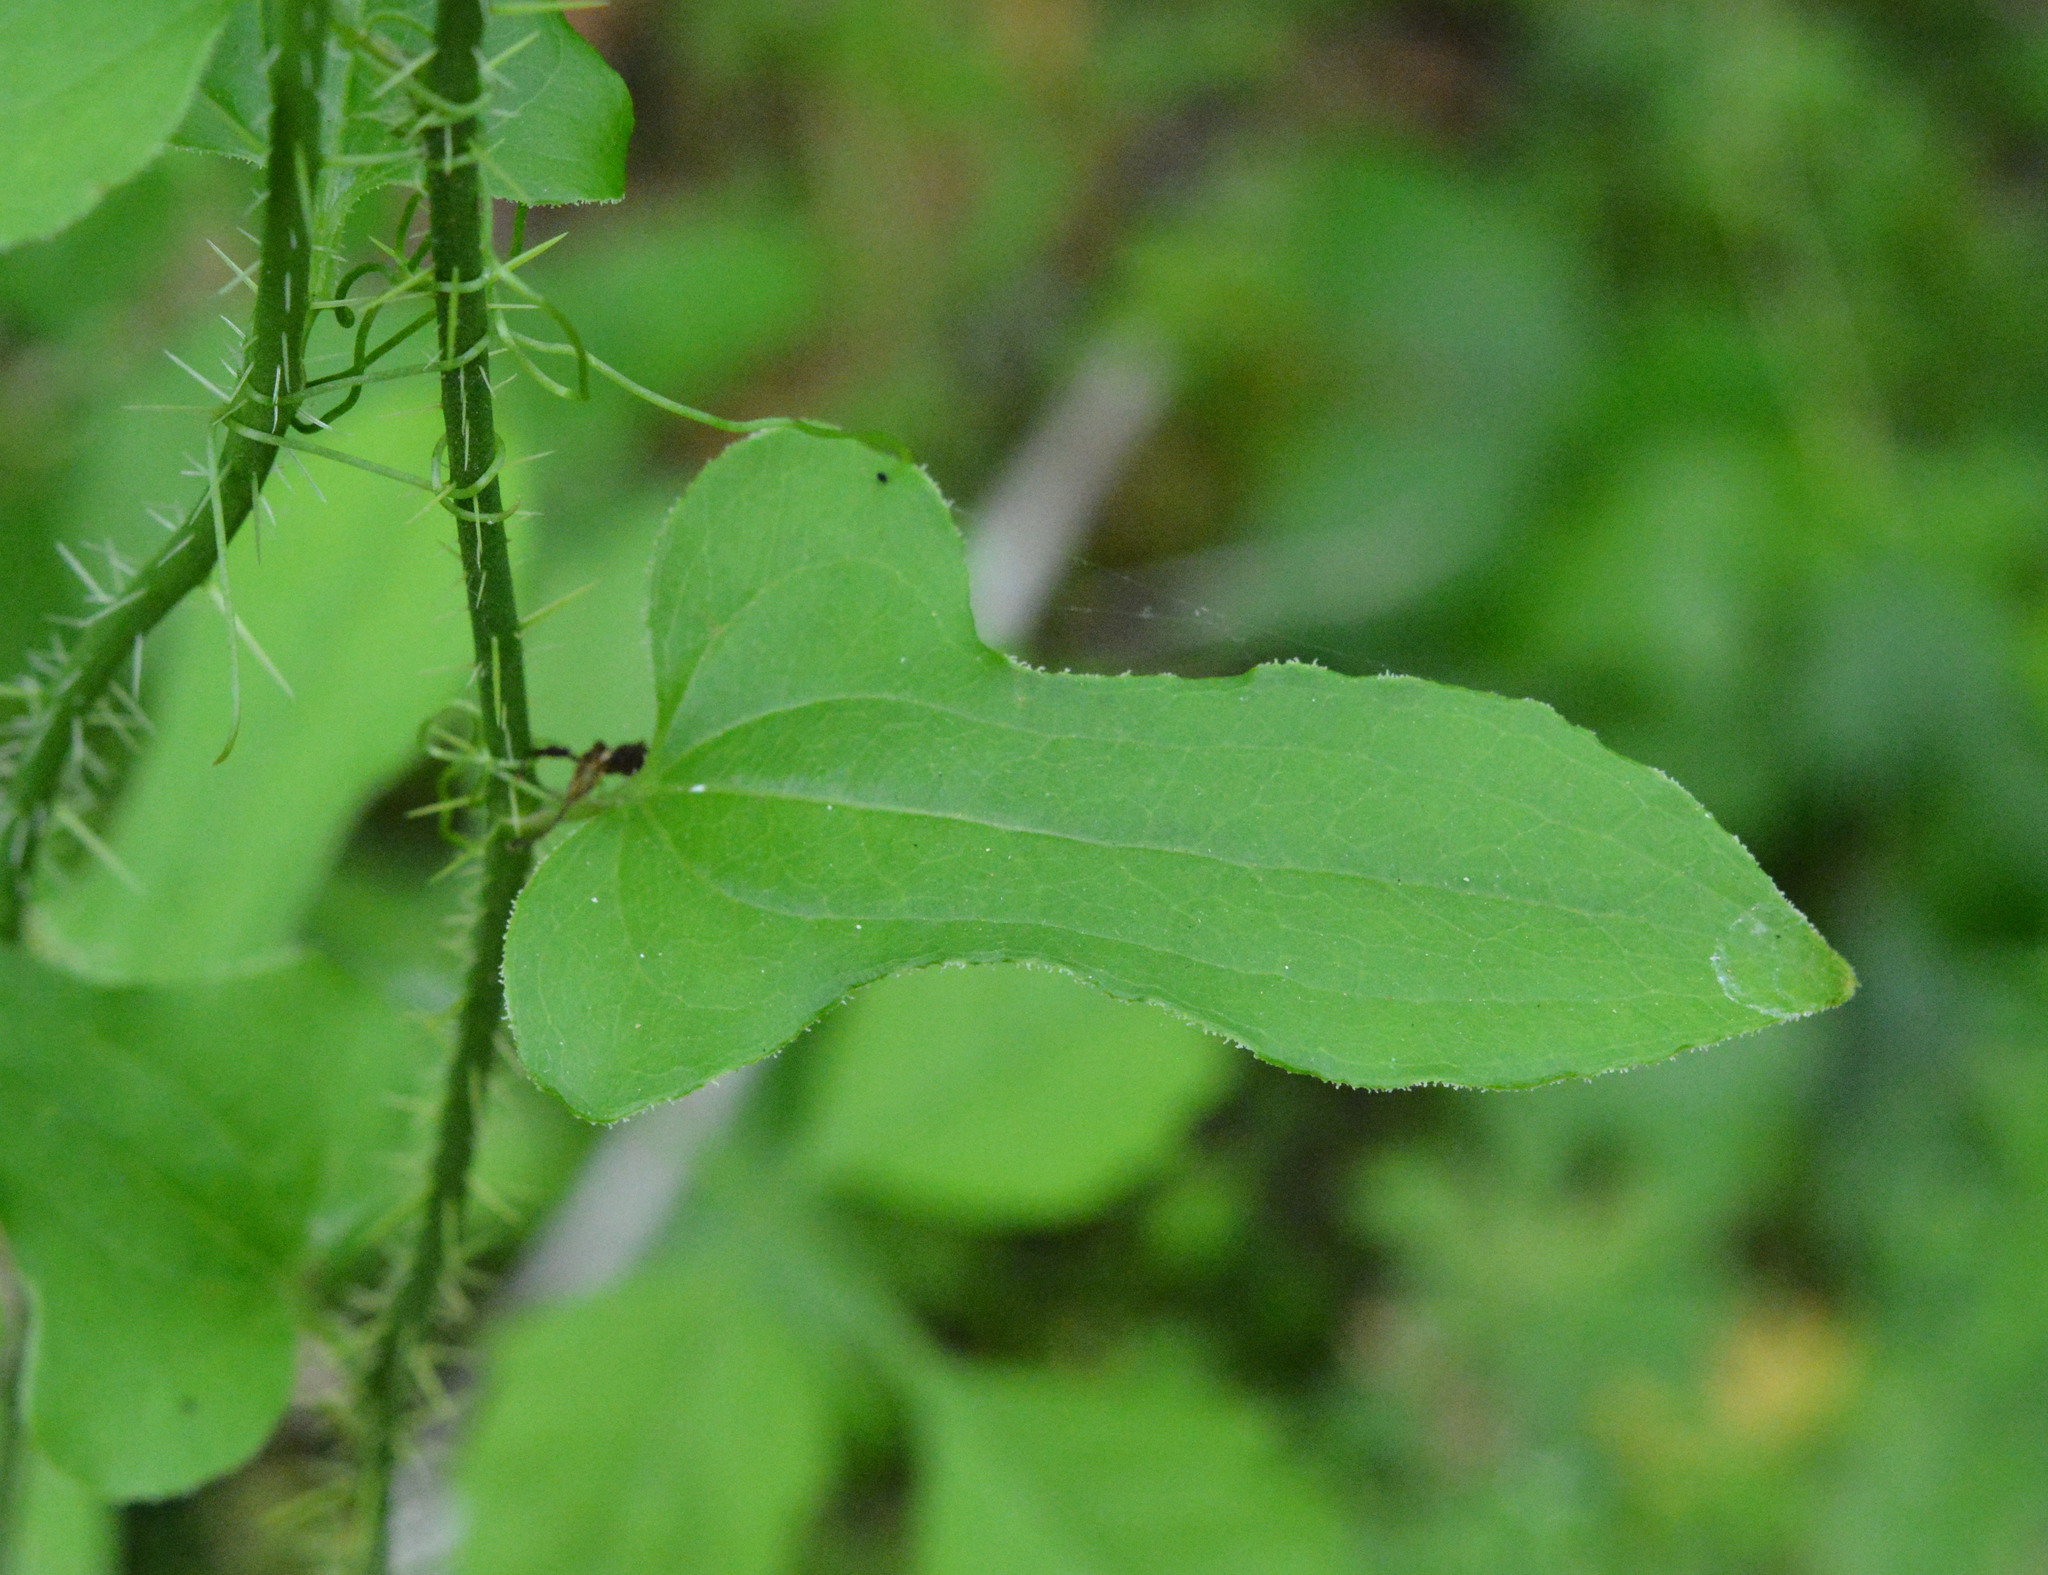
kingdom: Plantae
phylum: Tracheophyta
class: Liliopsida
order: Liliales
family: Smilacaceae
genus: Smilax
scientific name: Smilax tamnoides
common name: Hellfetter
